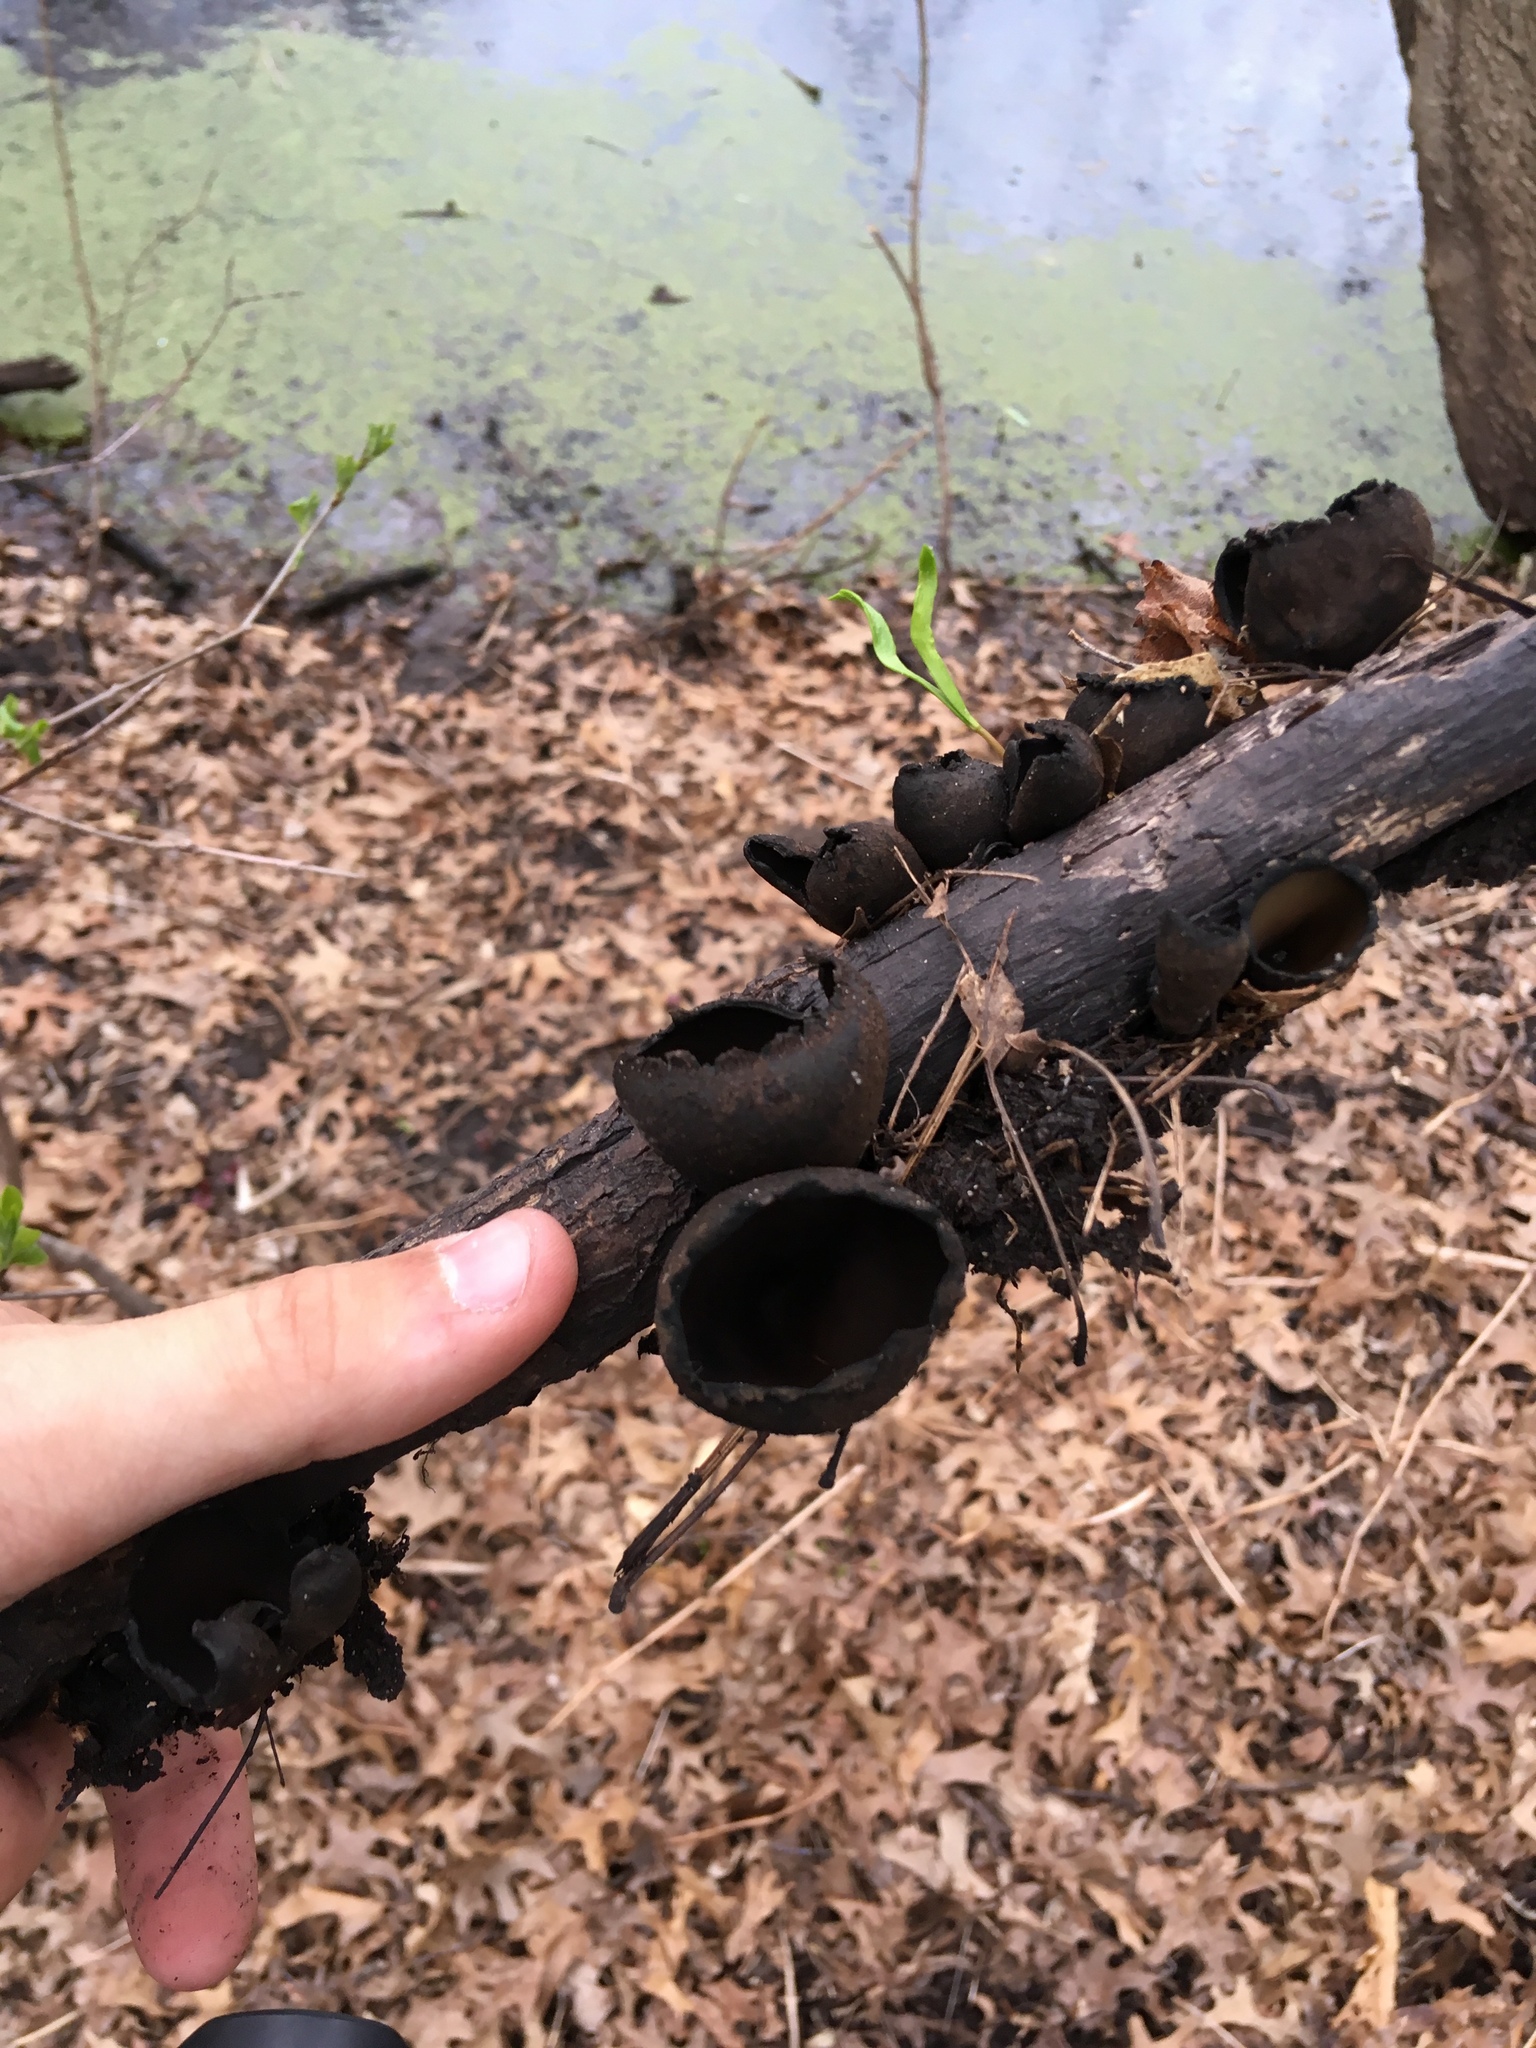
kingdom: Fungi
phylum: Ascomycota
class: Pezizomycetes
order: Pezizales
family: Sarcosomataceae
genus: Urnula
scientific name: Urnula craterium
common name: Devil's urn
